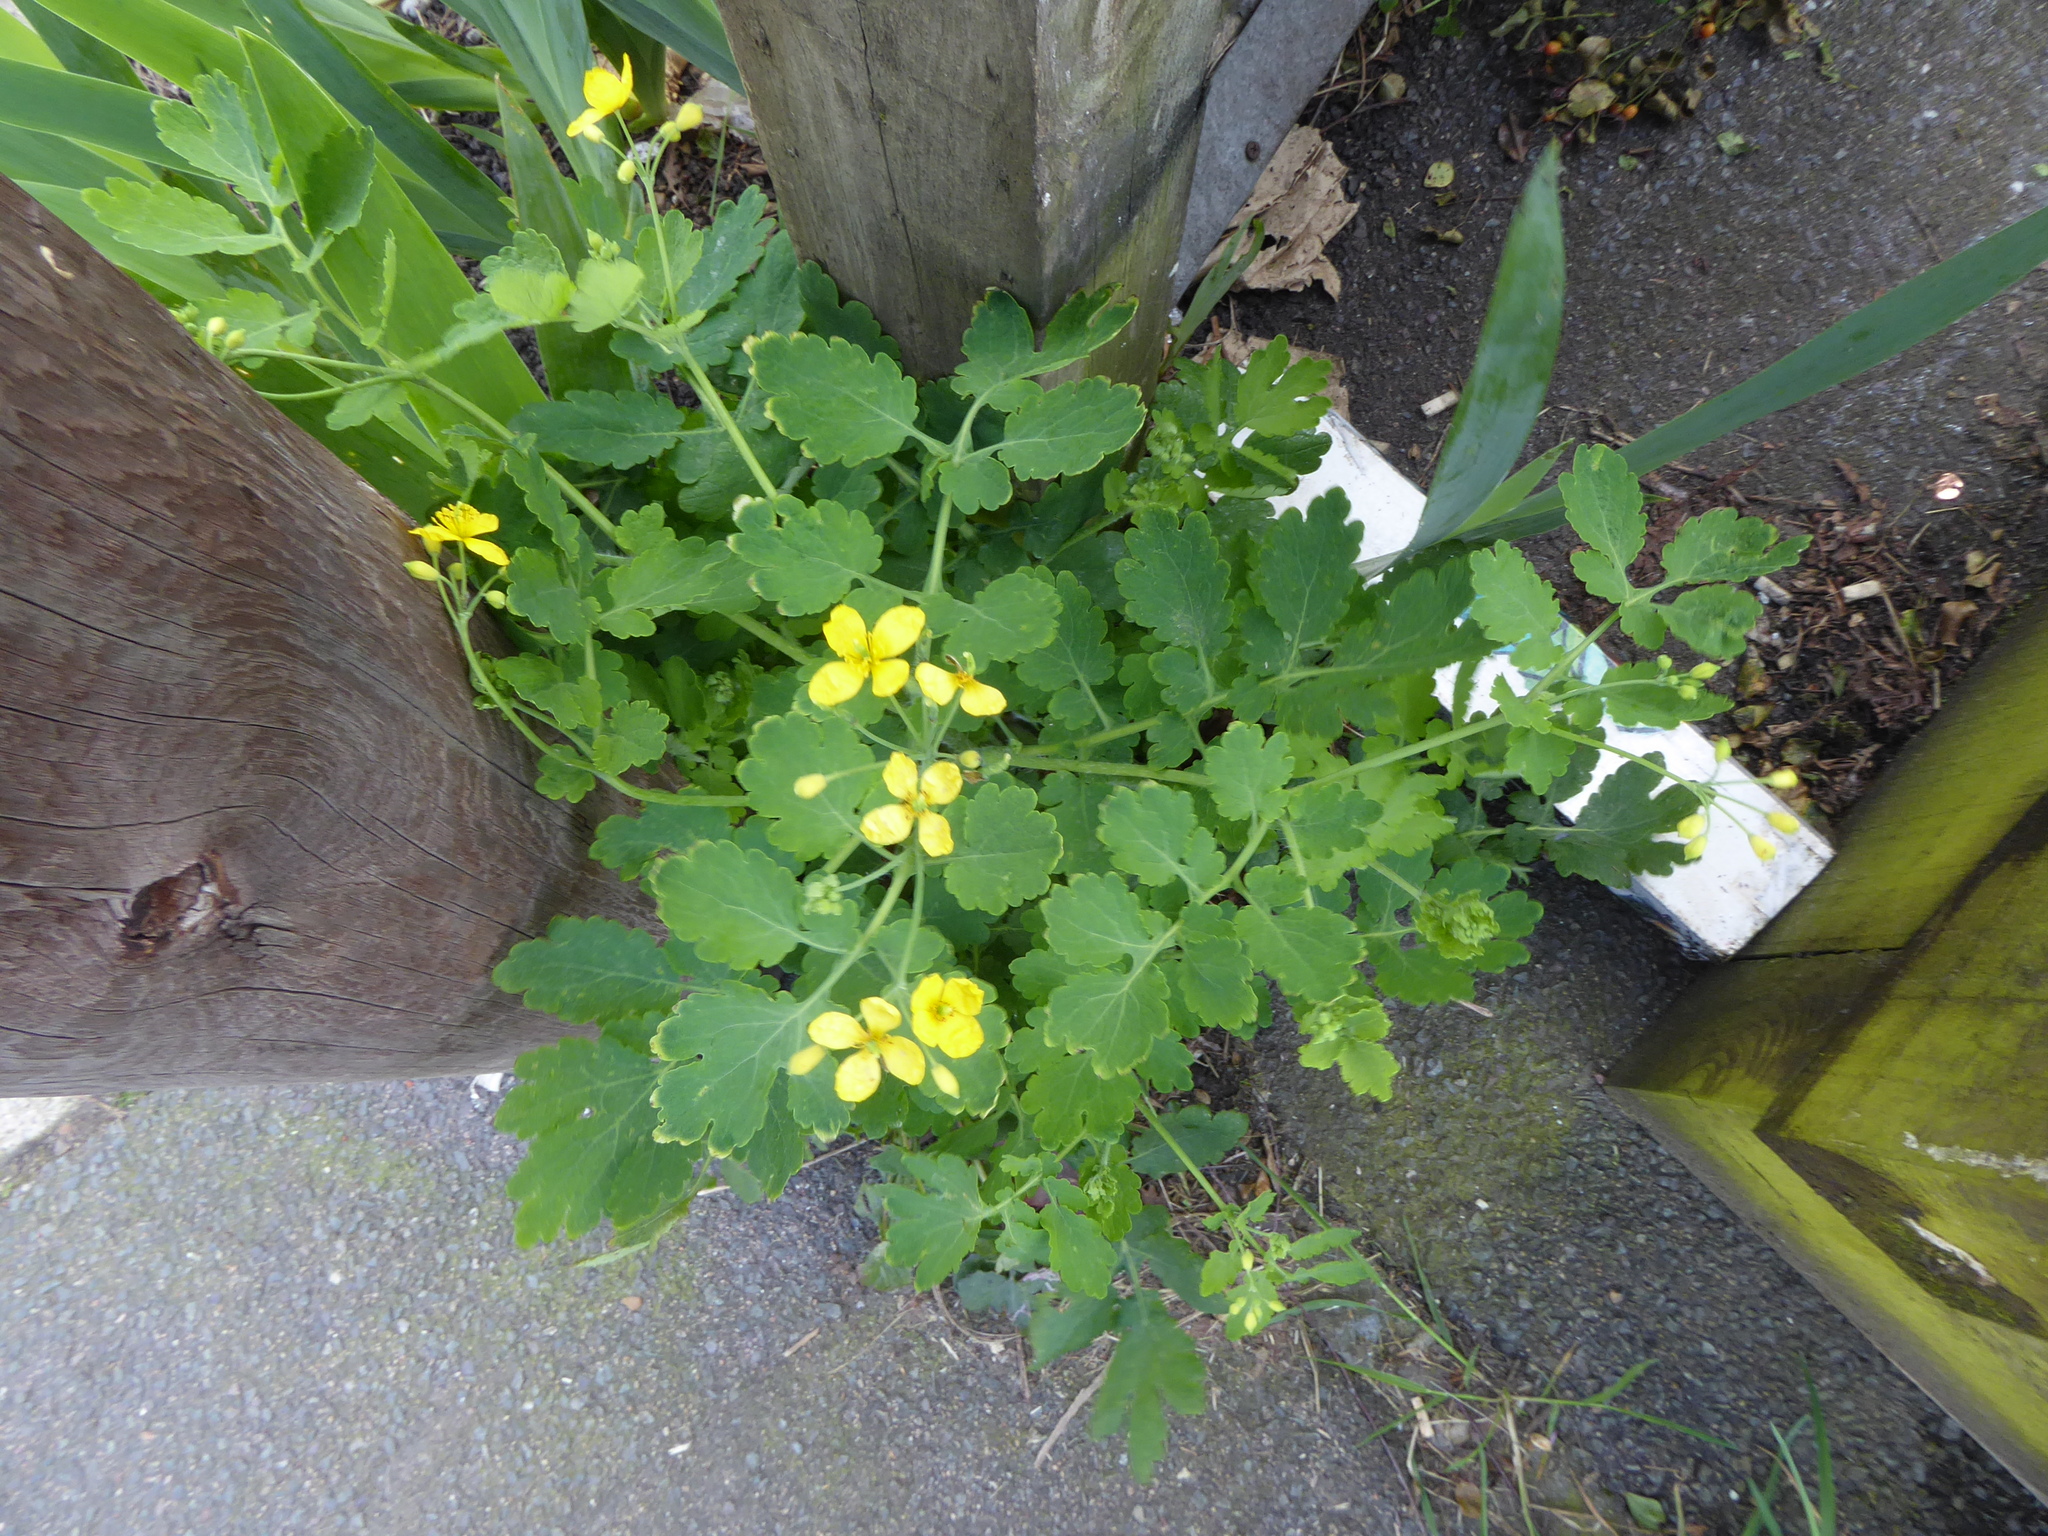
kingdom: Plantae
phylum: Tracheophyta
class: Magnoliopsida
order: Ranunculales
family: Papaveraceae
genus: Chelidonium
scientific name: Chelidonium majus
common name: Greater celandine
